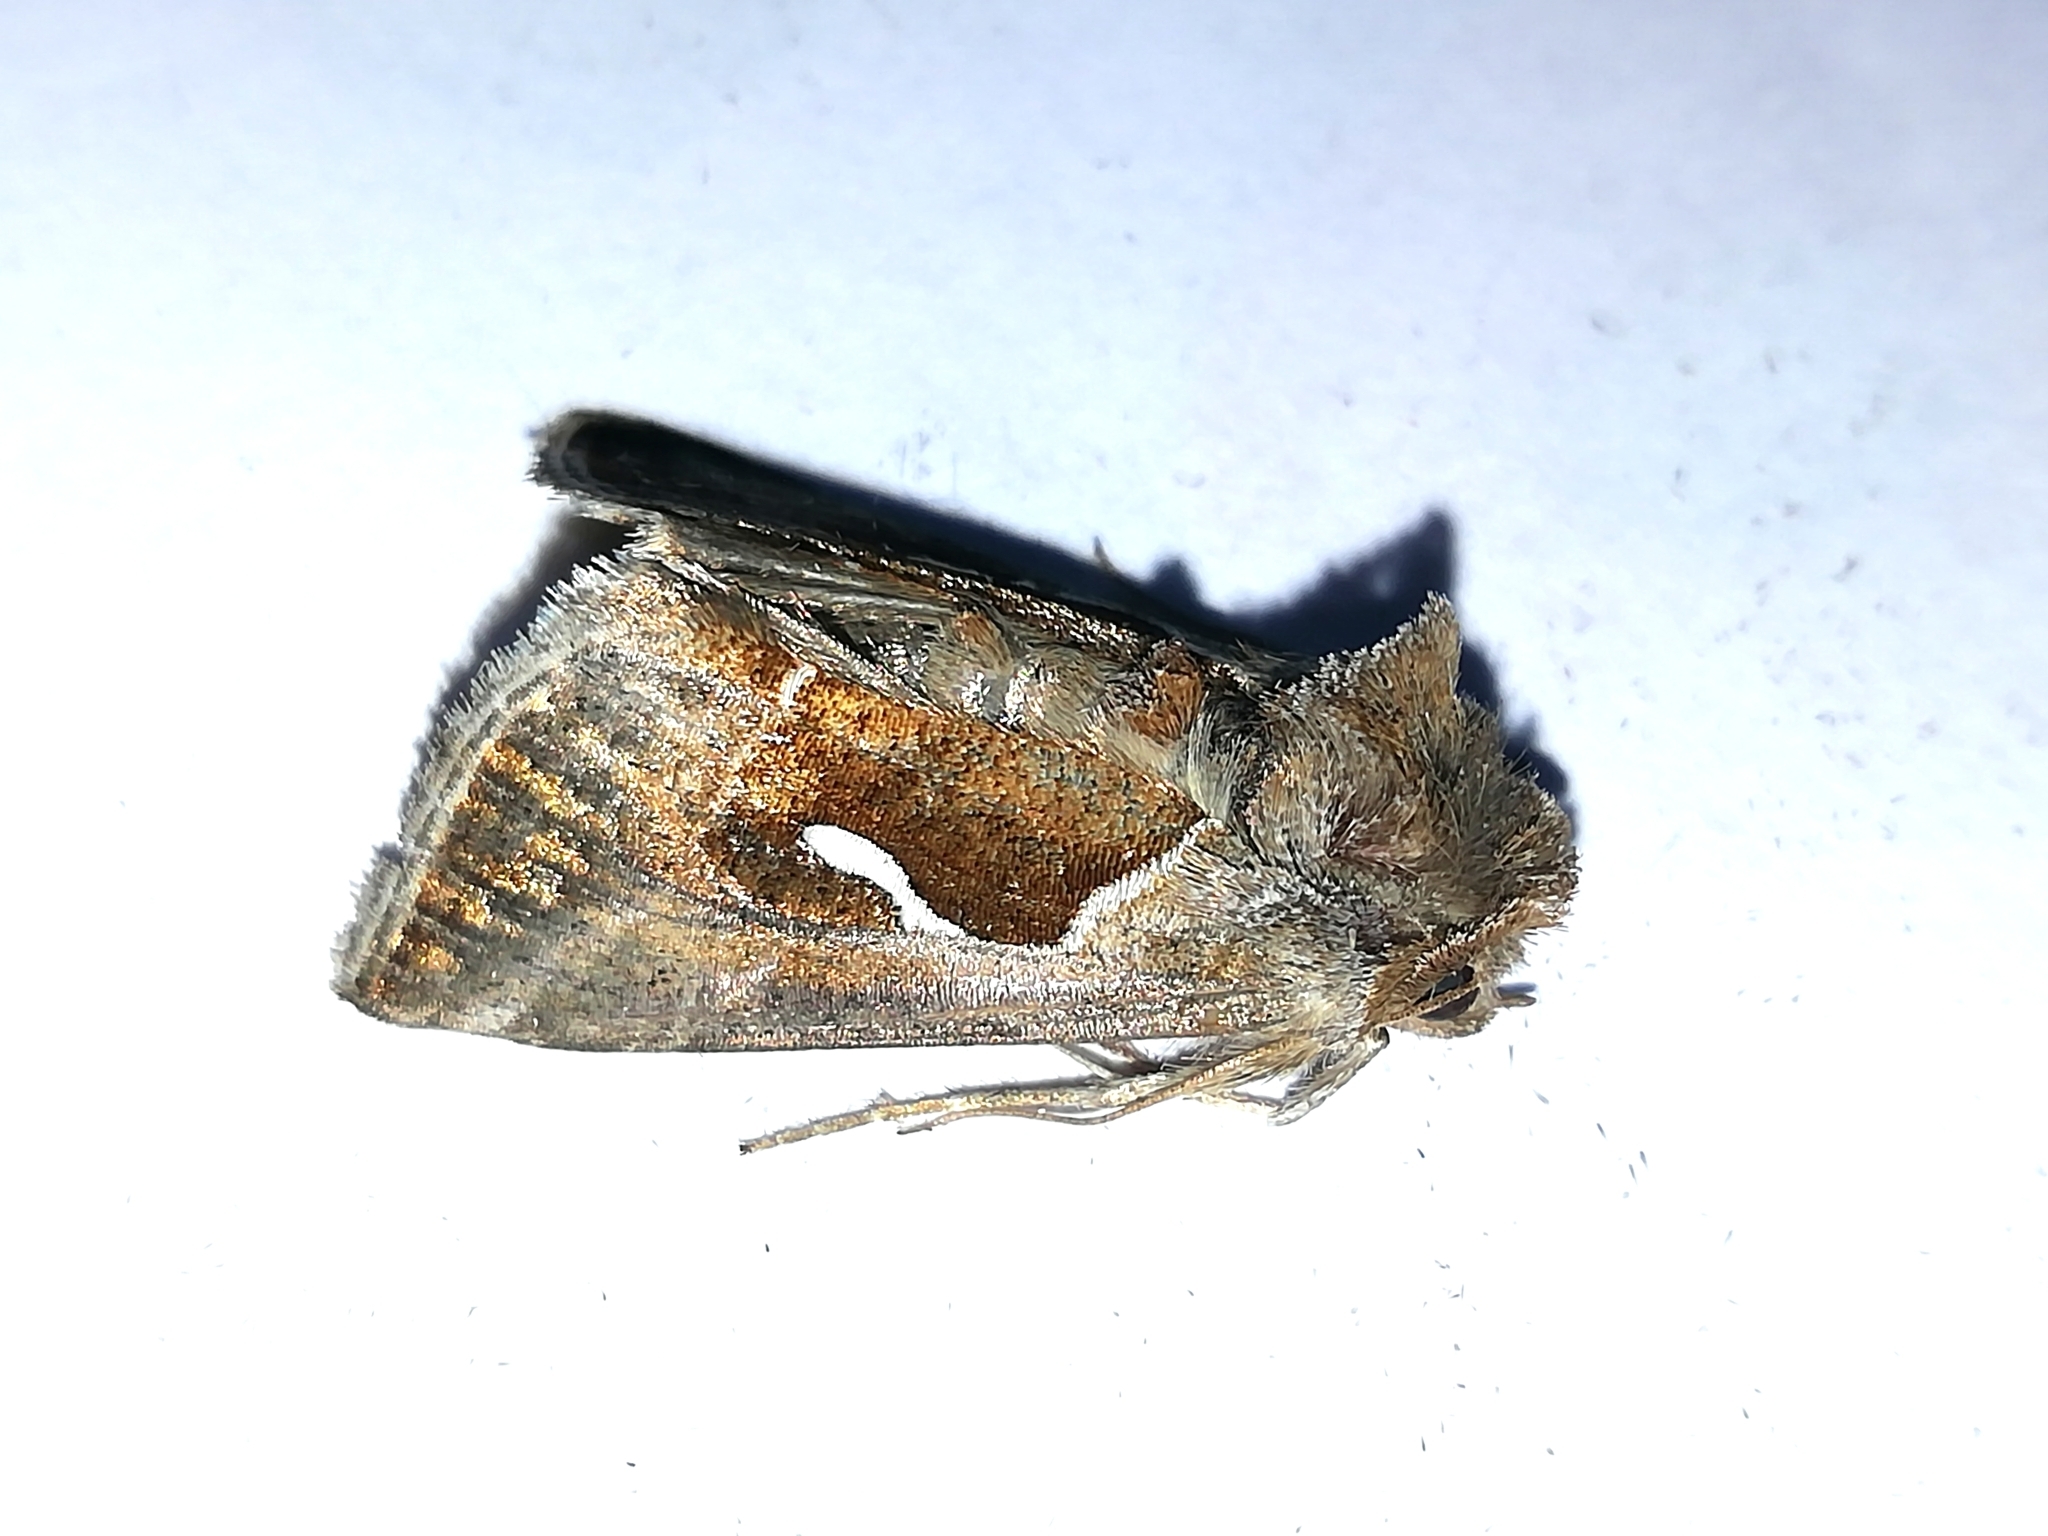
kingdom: Animalia
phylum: Arthropoda
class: Insecta
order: Lepidoptera
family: Noctuidae
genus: Macdunnoughia
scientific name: Macdunnoughia confusa
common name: Dewick's plusia
